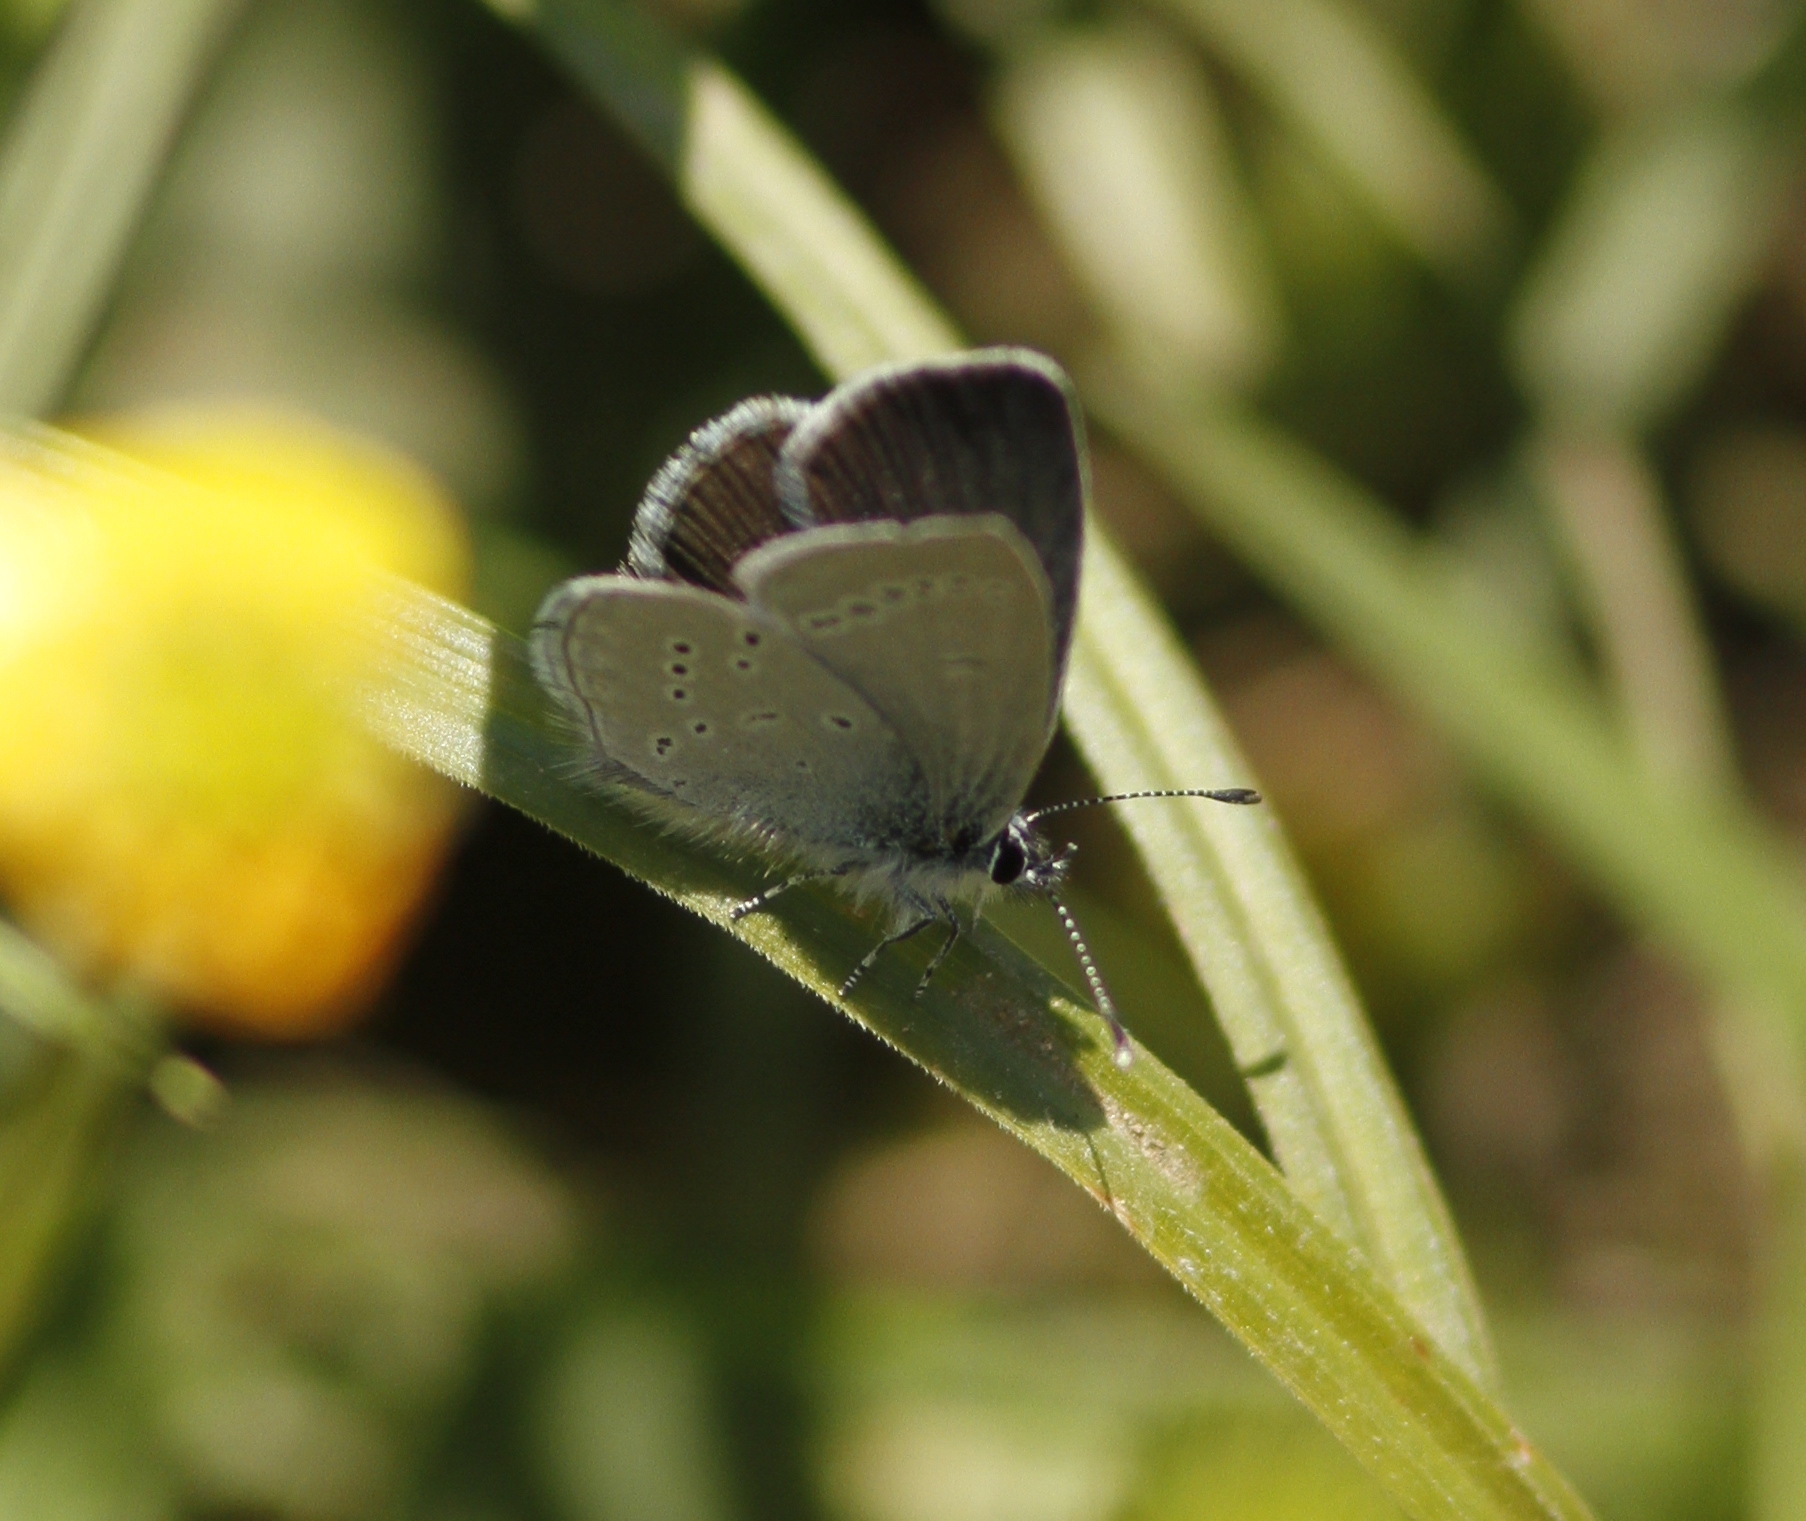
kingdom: Animalia
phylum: Arthropoda
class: Insecta
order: Lepidoptera
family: Lycaenidae
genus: Cupido
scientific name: Cupido minimus
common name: Small blue
